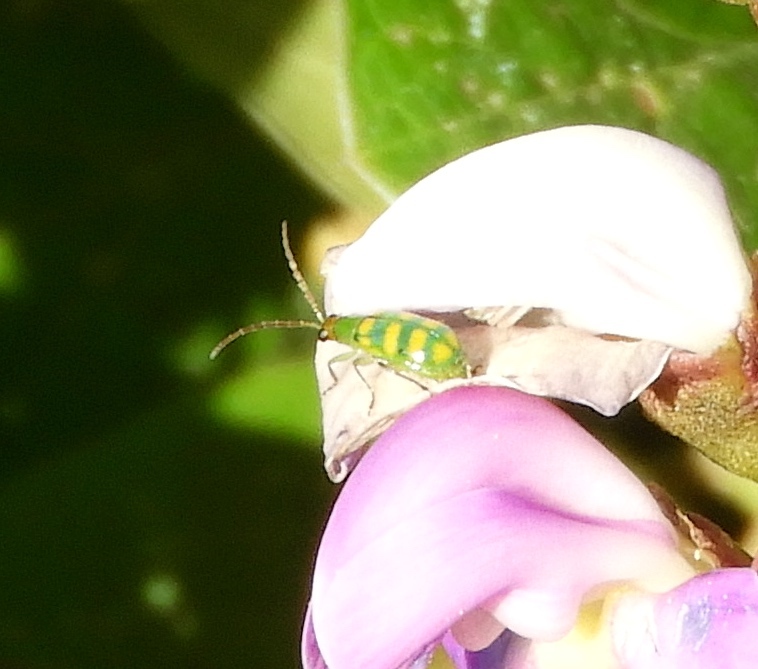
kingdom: Animalia
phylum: Arthropoda
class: Insecta
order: Coleoptera
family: Chrysomelidae
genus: Diabrotica
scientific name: Diabrotica balteata
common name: Leaf beetle
